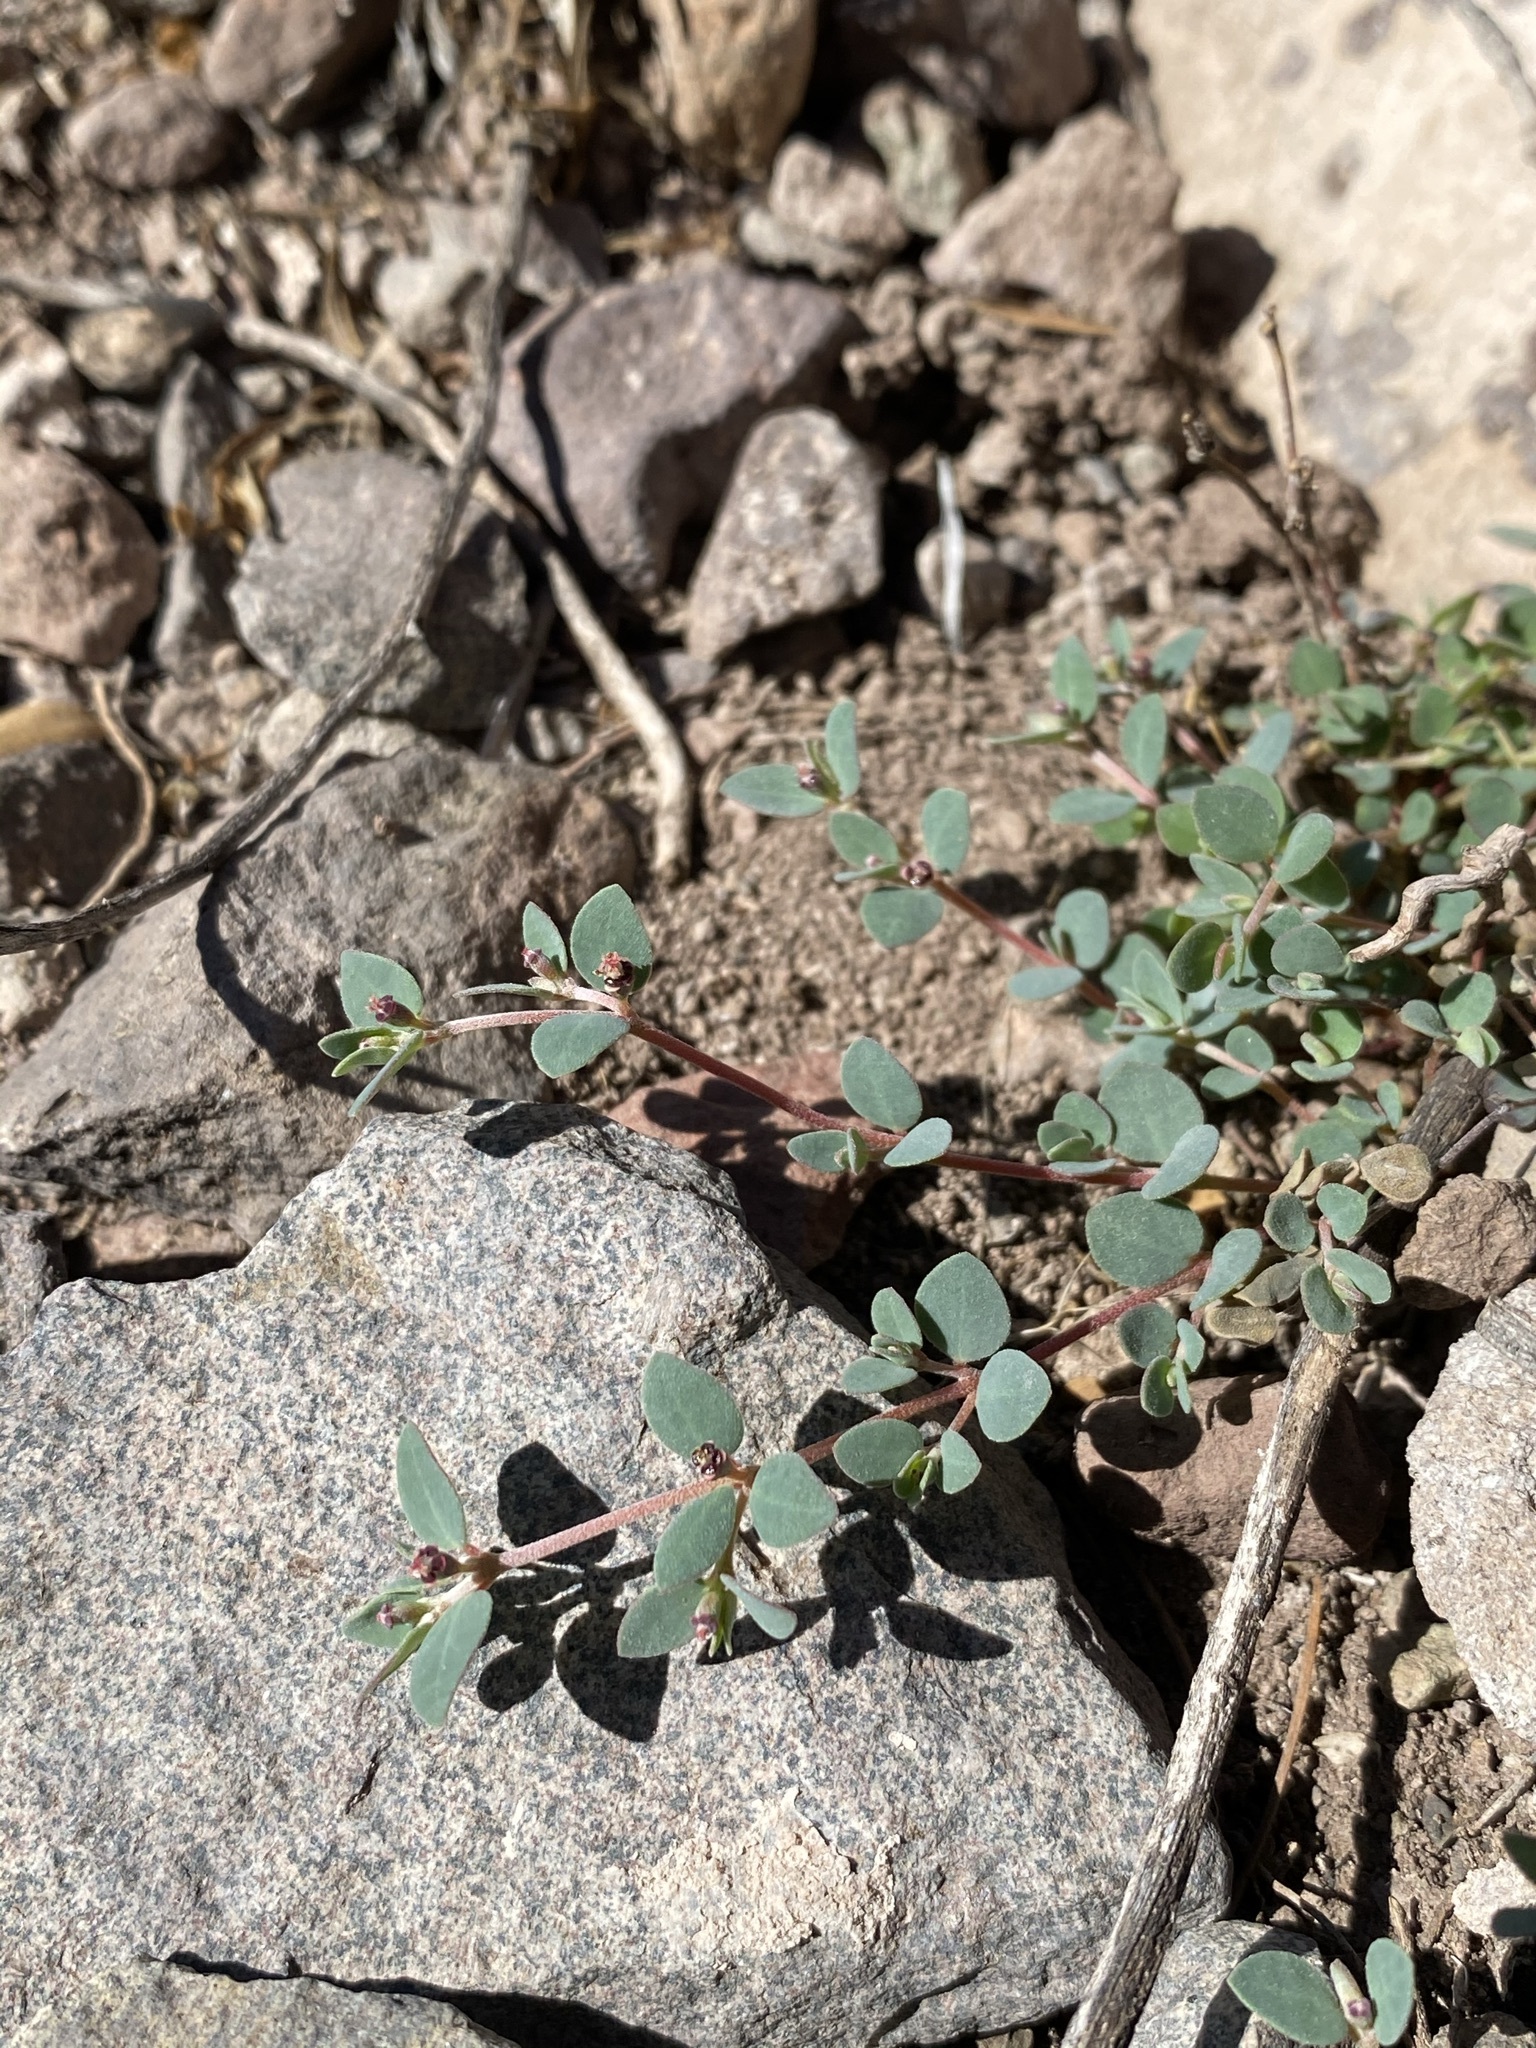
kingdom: Plantae
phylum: Tracheophyta
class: Magnoliopsida
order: Malpighiales
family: Euphorbiaceae
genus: Euphorbia
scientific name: Euphorbia cinerascens
